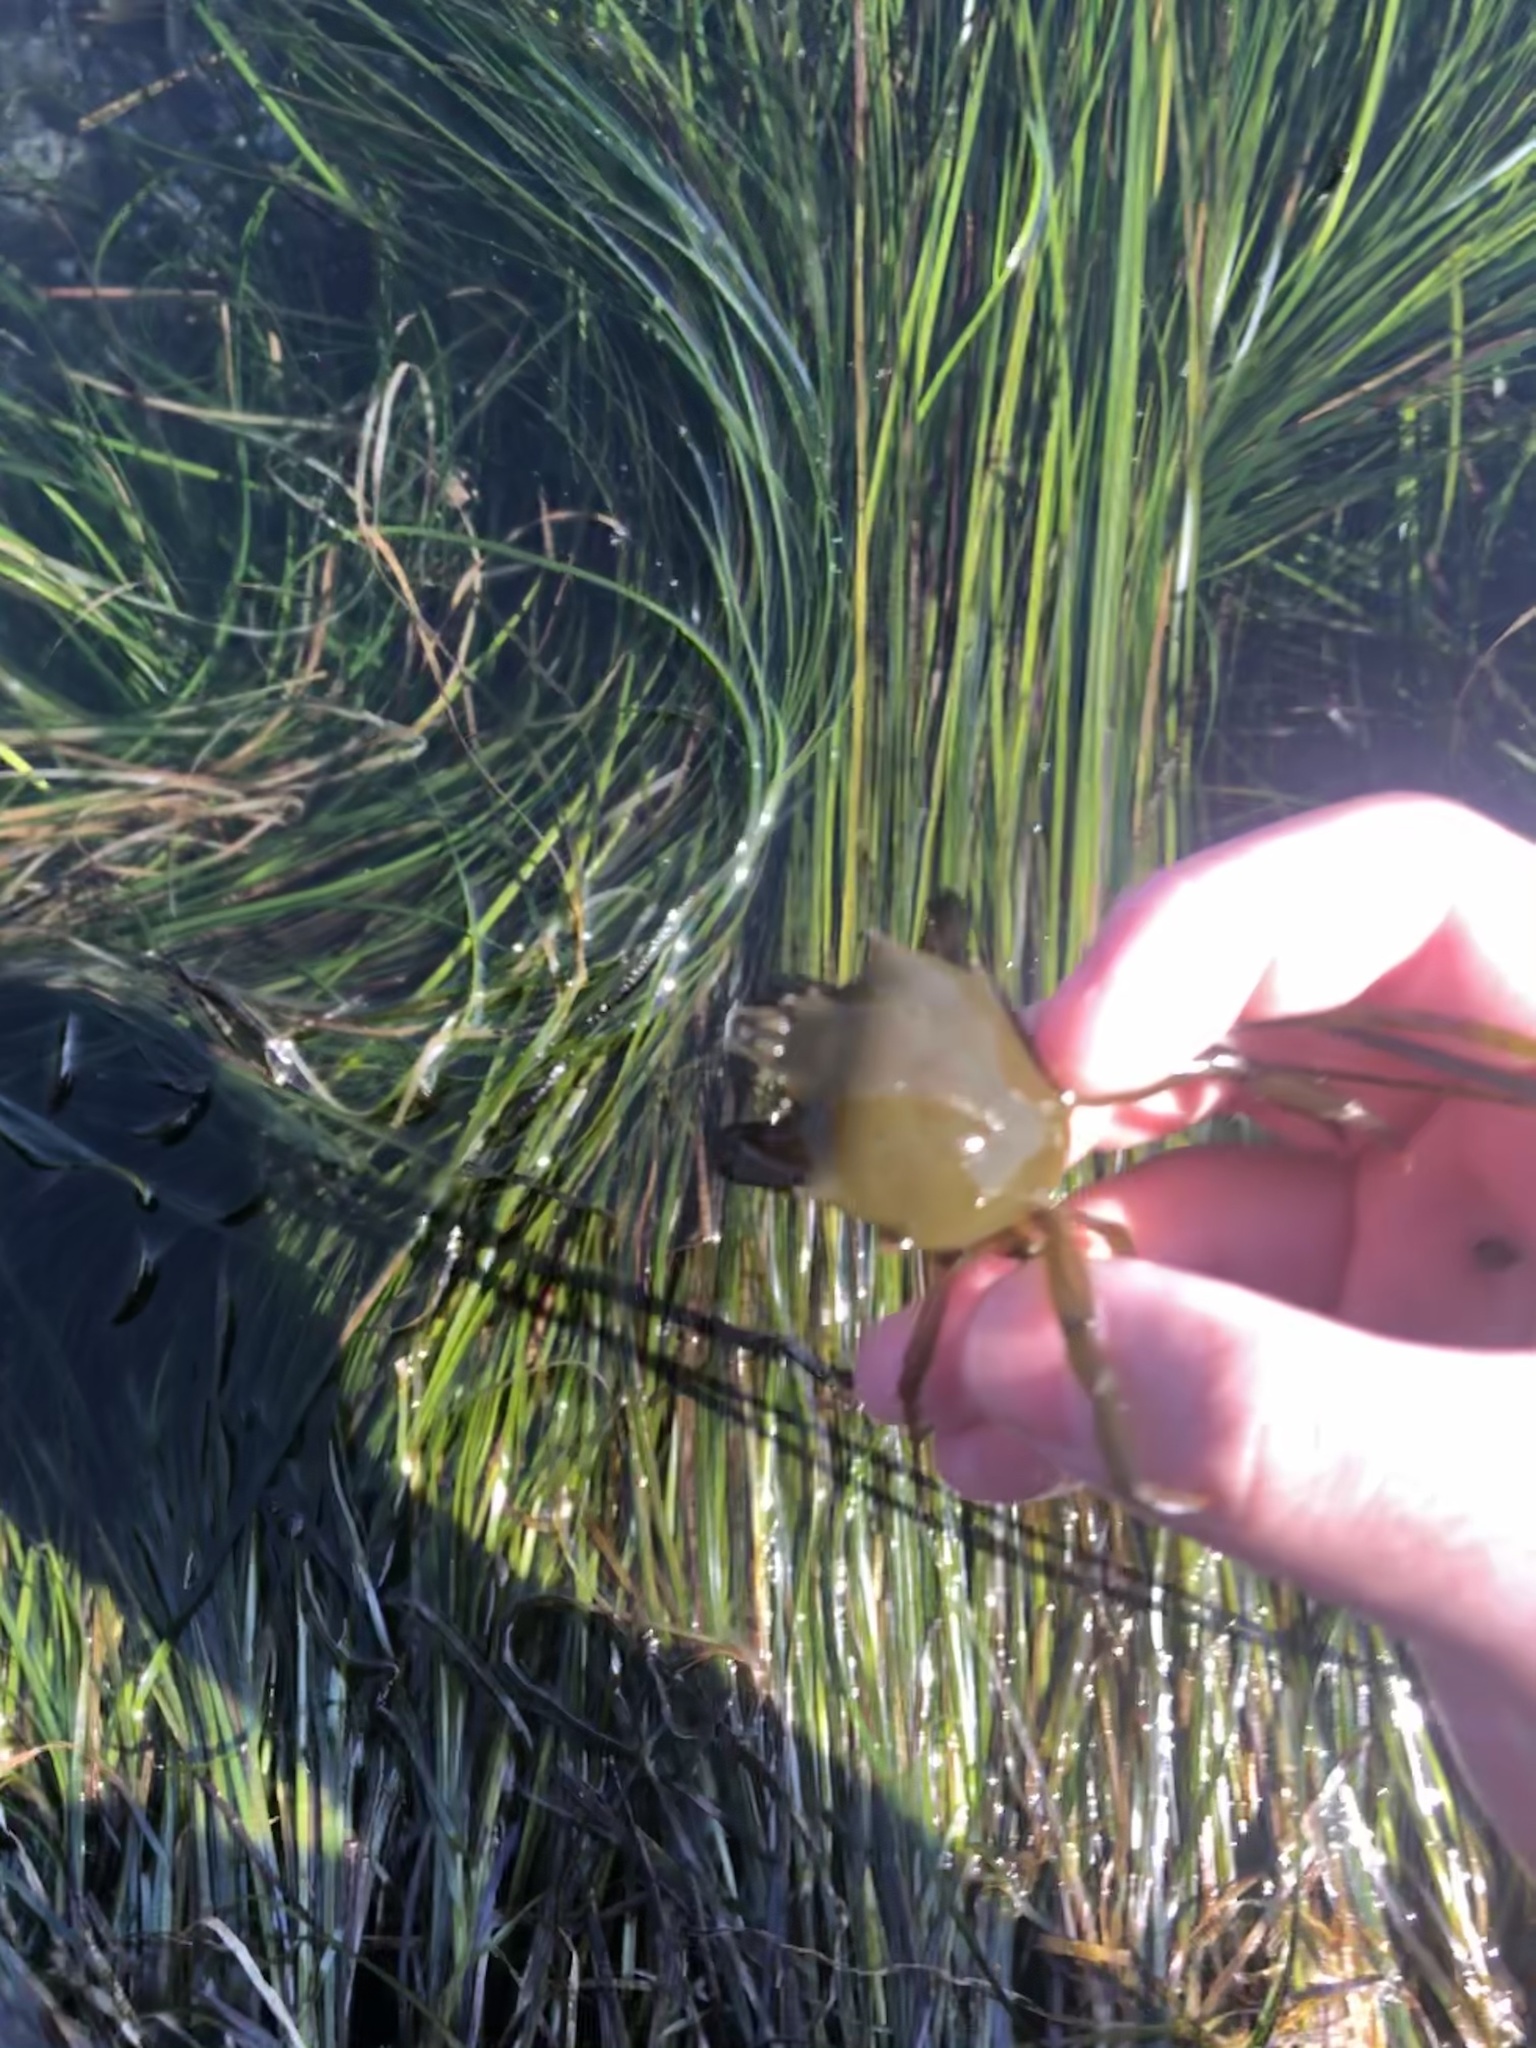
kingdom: Animalia
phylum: Arthropoda
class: Malacostraca
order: Decapoda
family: Epialtidae
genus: Pugettia
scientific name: Pugettia producta
